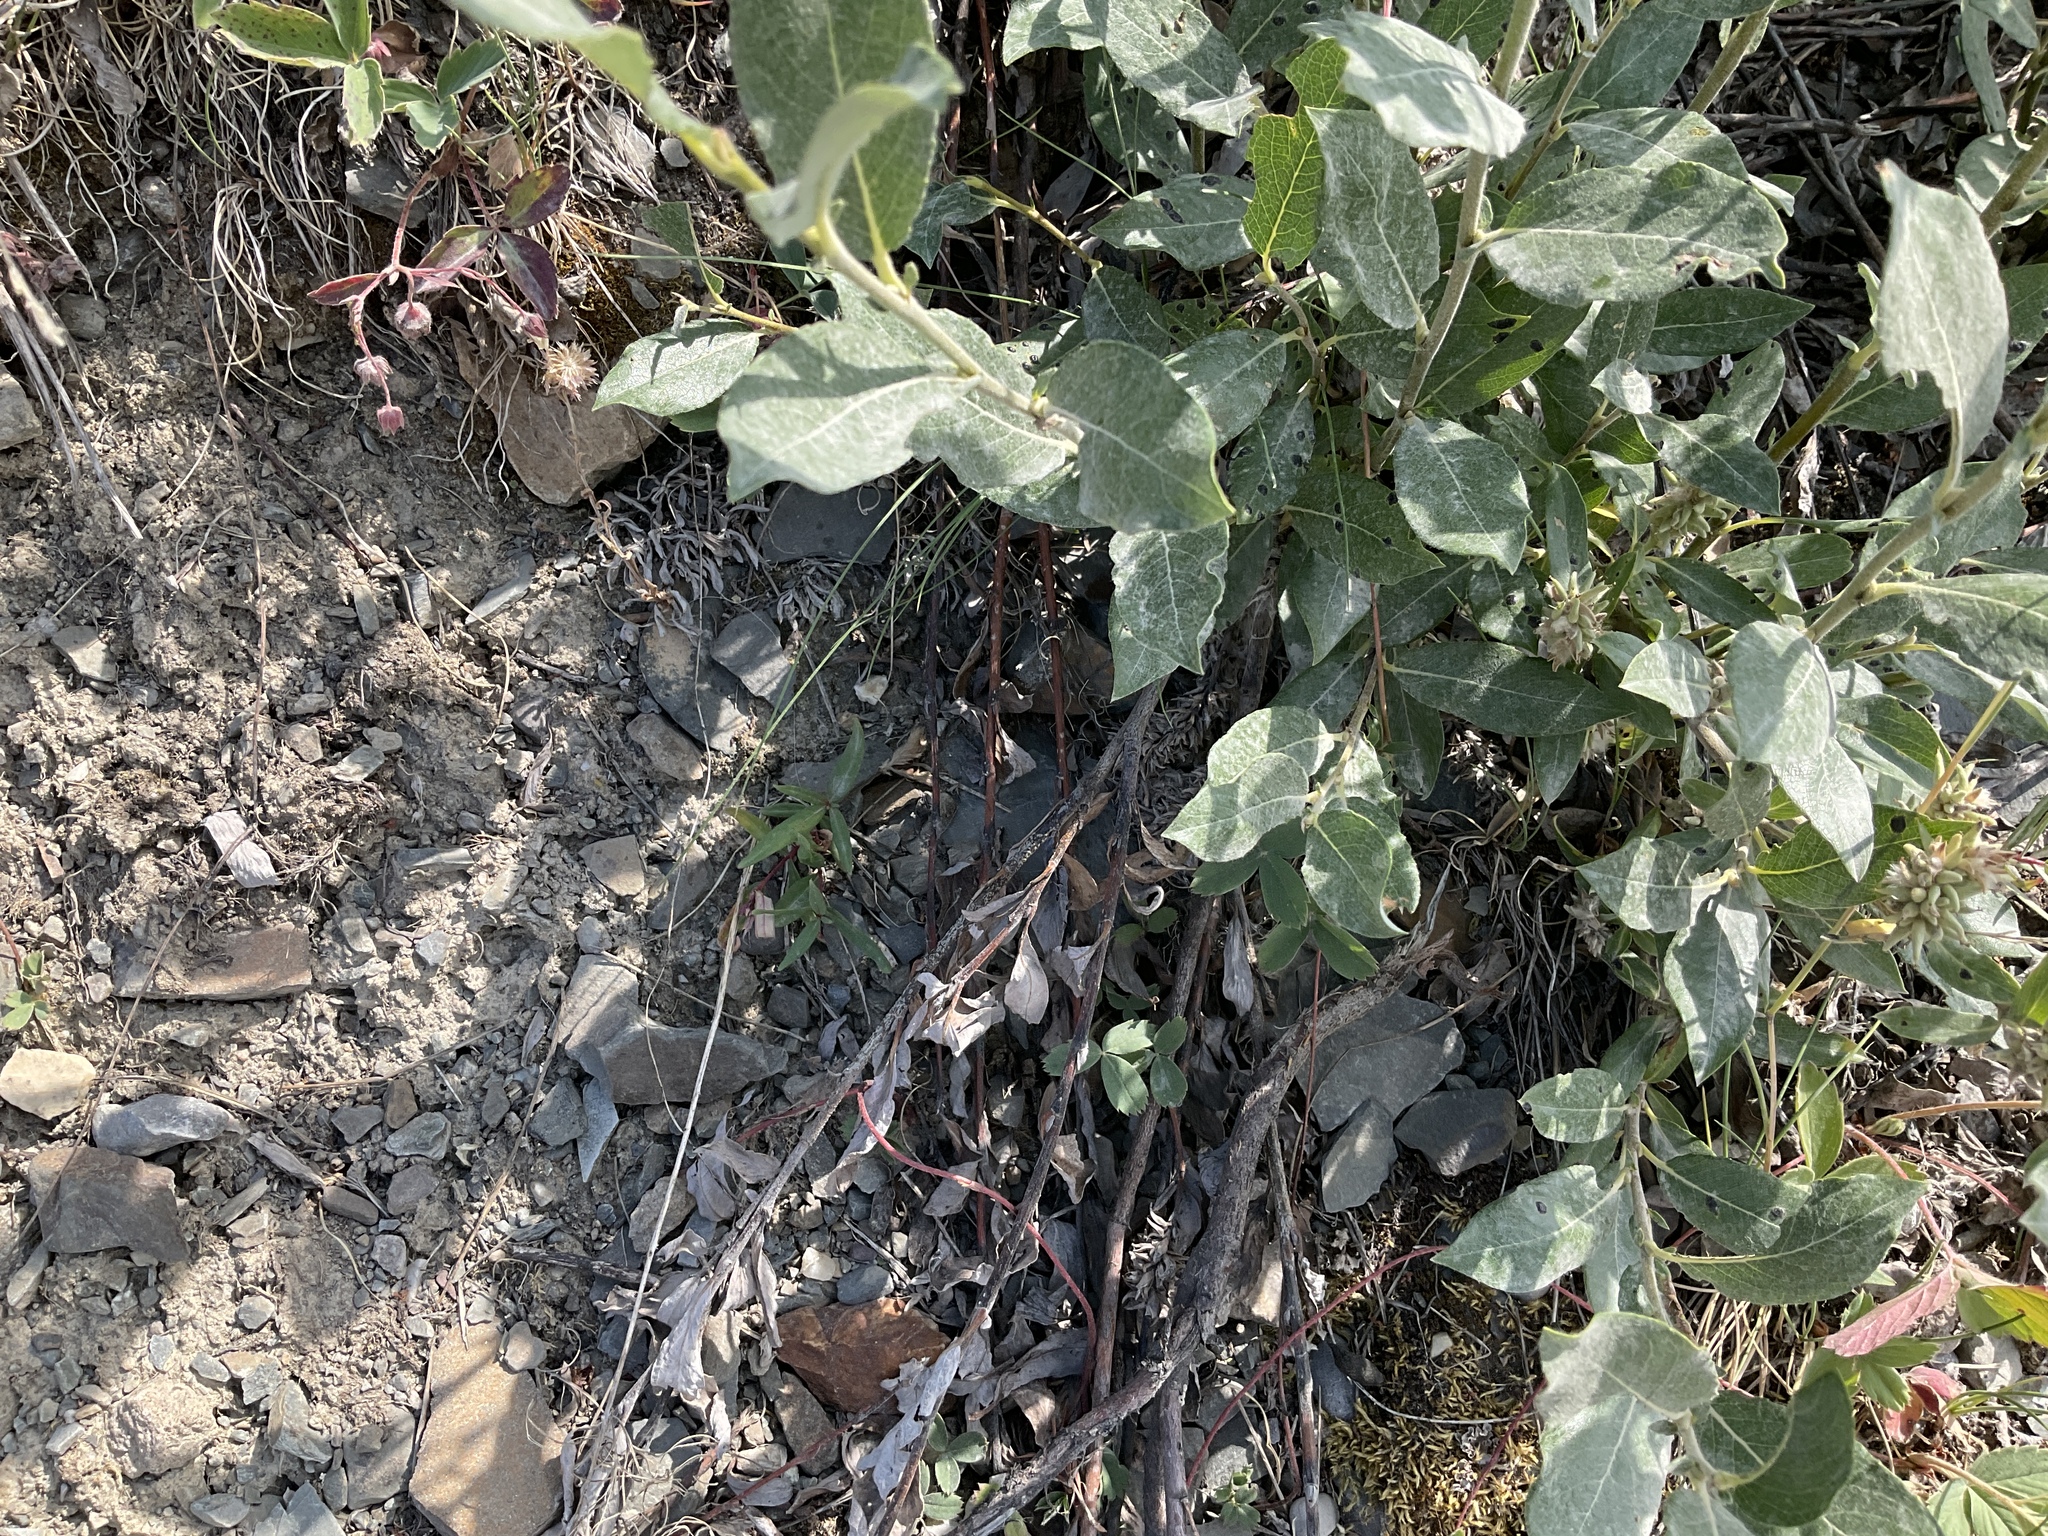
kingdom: Plantae
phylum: Tracheophyta
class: Magnoliopsida
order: Malpighiales
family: Salicaceae
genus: Salix
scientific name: Salix glauca
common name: Glaucous willow
